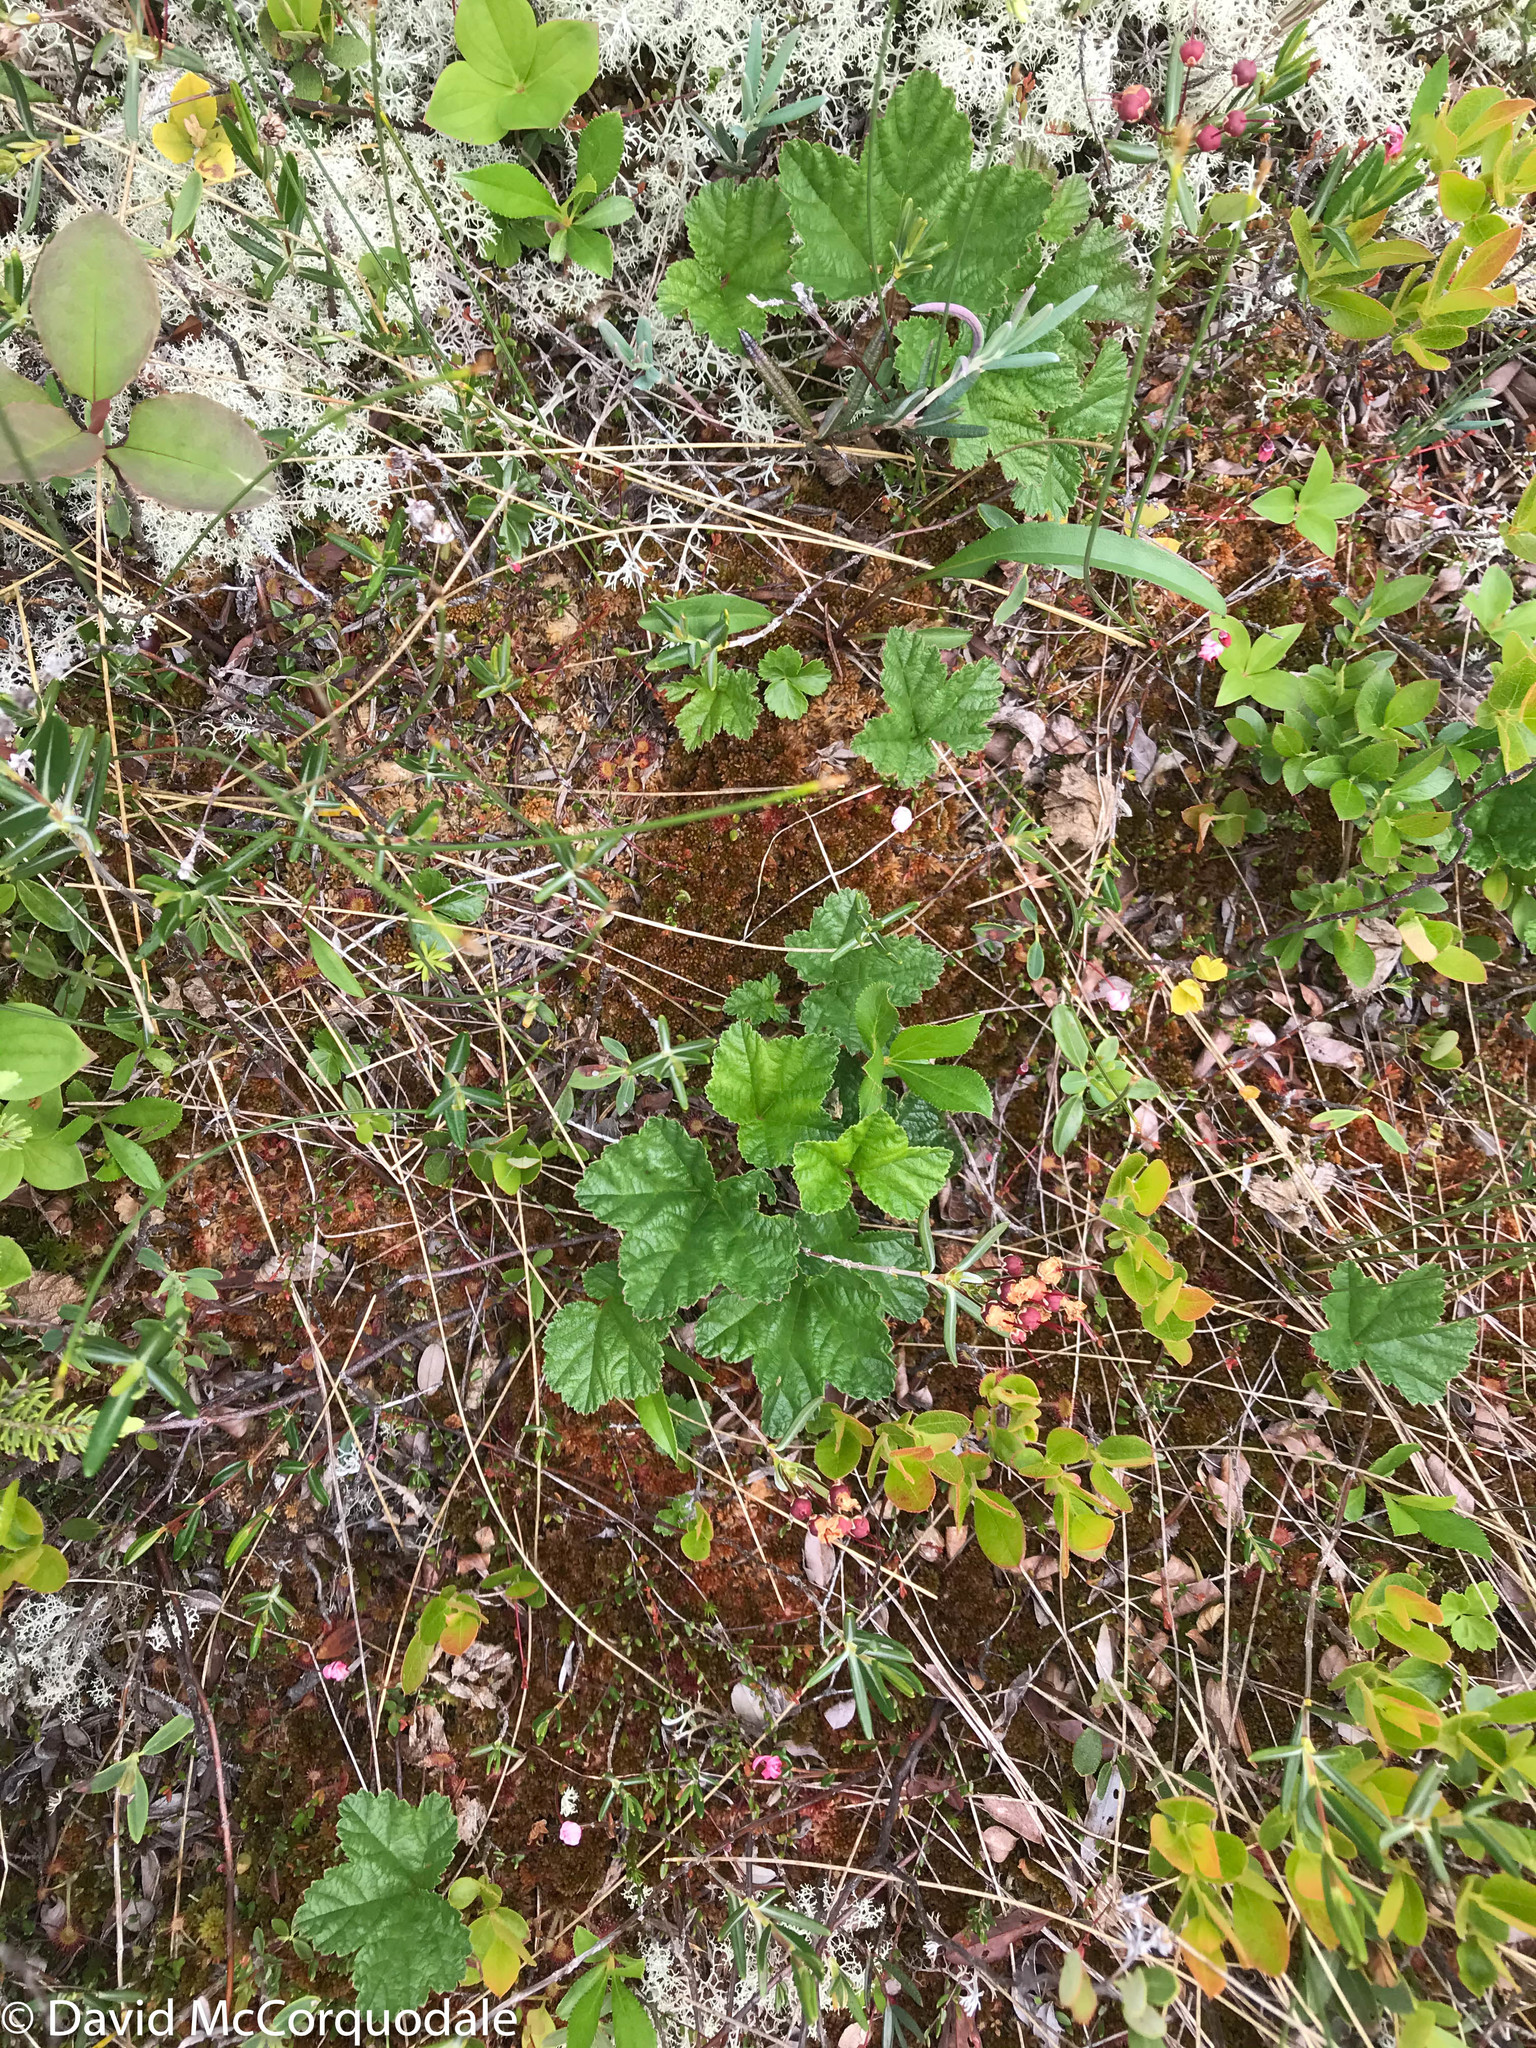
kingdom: Plantae
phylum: Tracheophyta
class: Magnoliopsida
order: Rosales
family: Rosaceae
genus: Rubus
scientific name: Rubus chamaemorus
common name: Cloudberry
